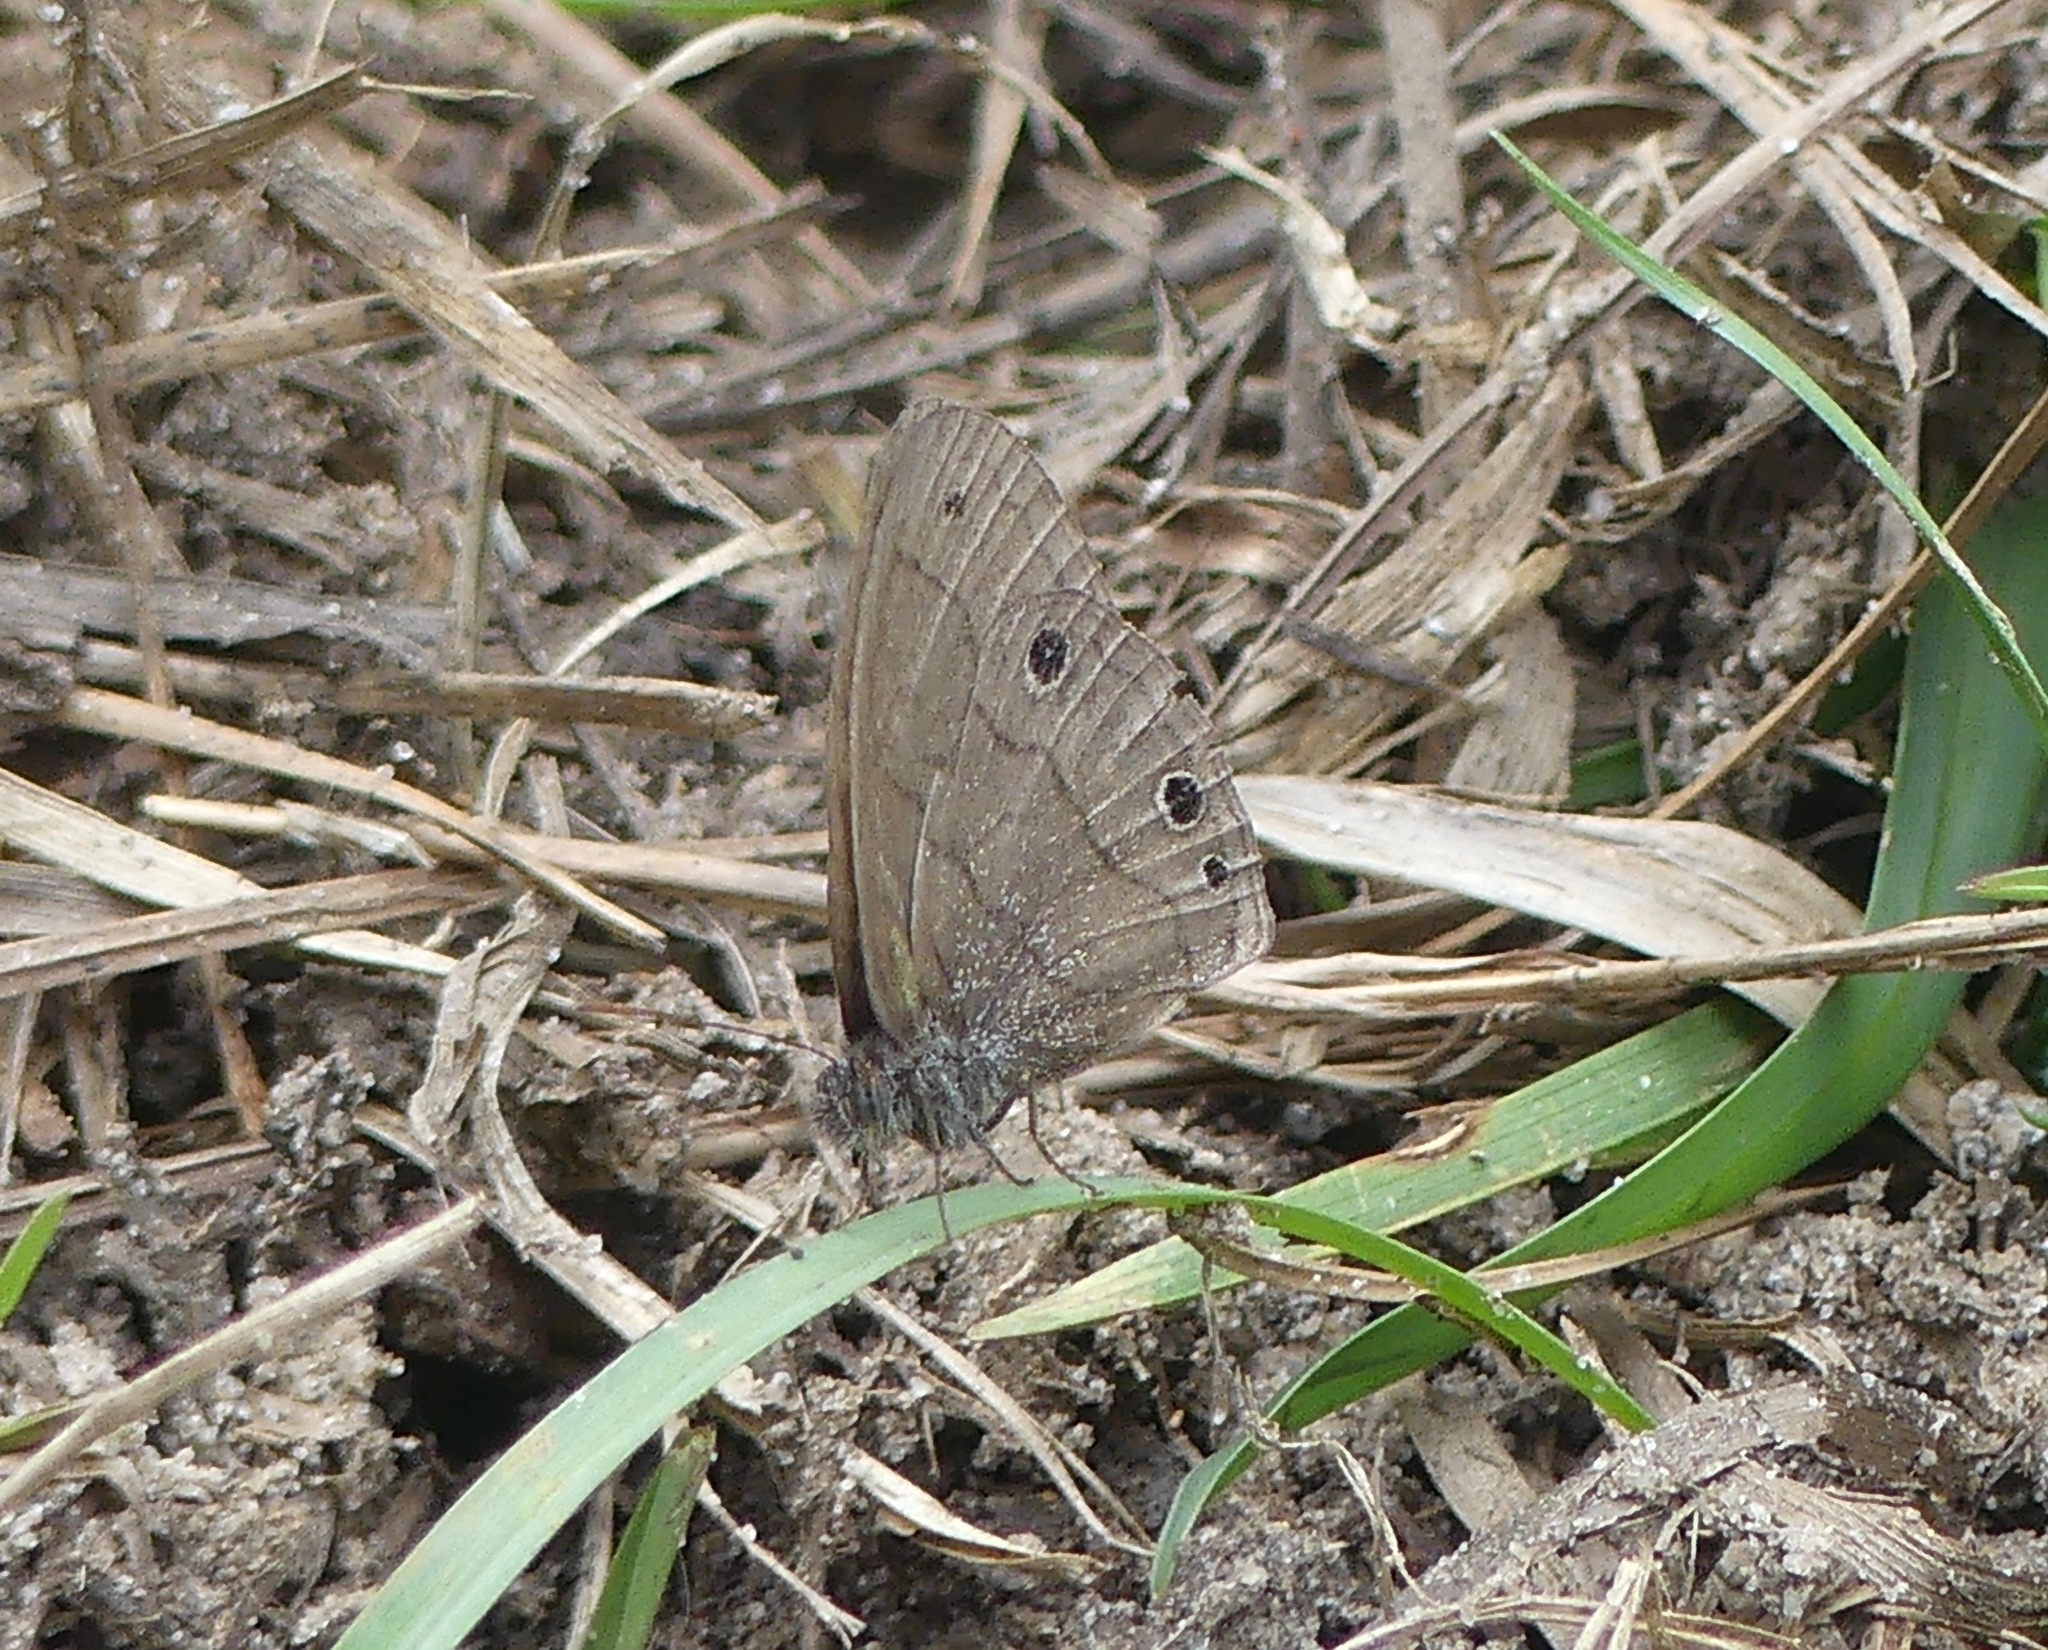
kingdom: Animalia
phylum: Arthropoda
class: Insecta
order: Lepidoptera
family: Nymphalidae
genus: Hermeuptychia
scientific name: Hermeuptychia hermes
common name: Hermes satyr
